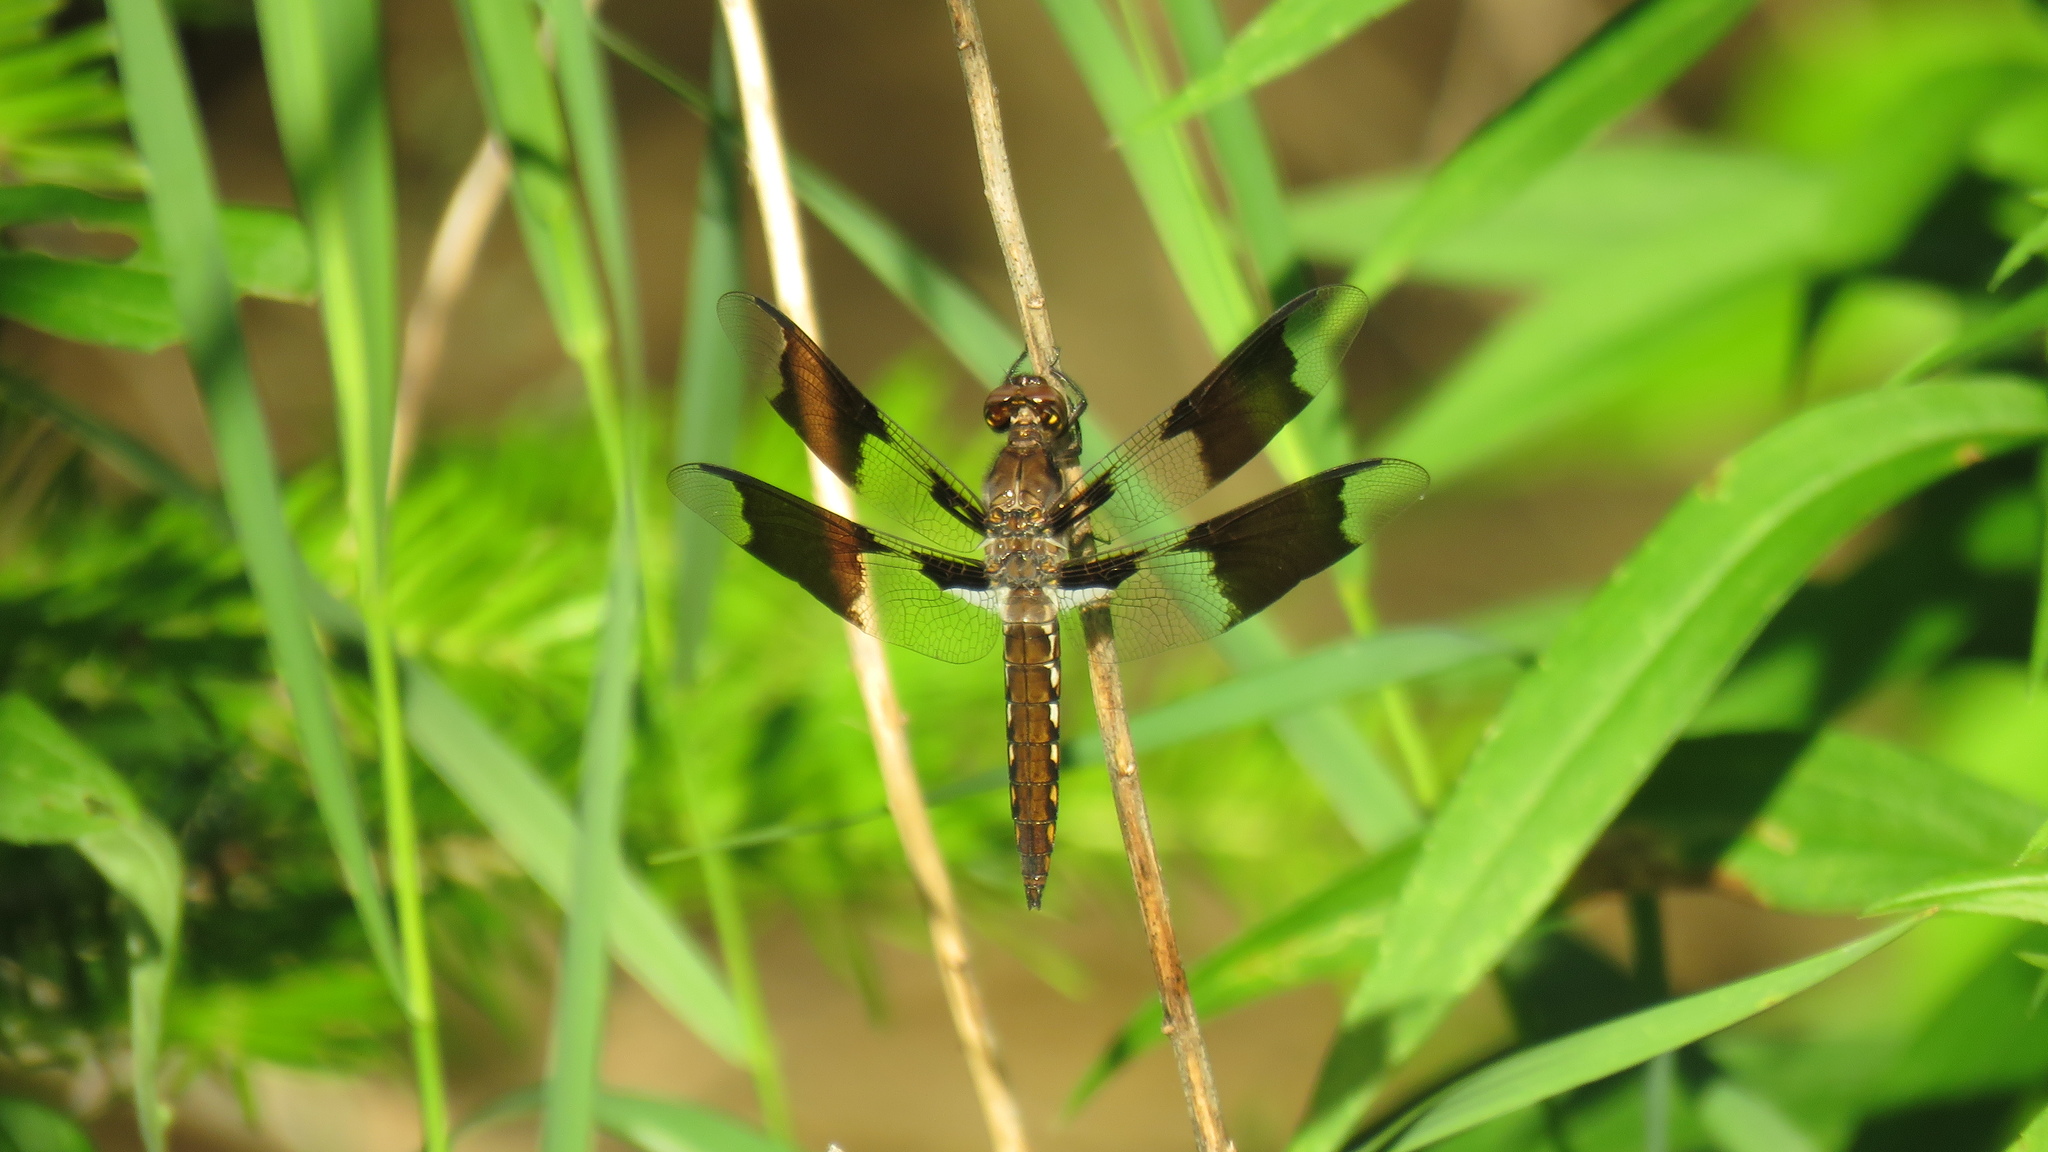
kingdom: Animalia
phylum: Arthropoda
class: Insecta
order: Odonata
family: Libellulidae
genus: Plathemis
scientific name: Plathemis lydia
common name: Common whitetail
